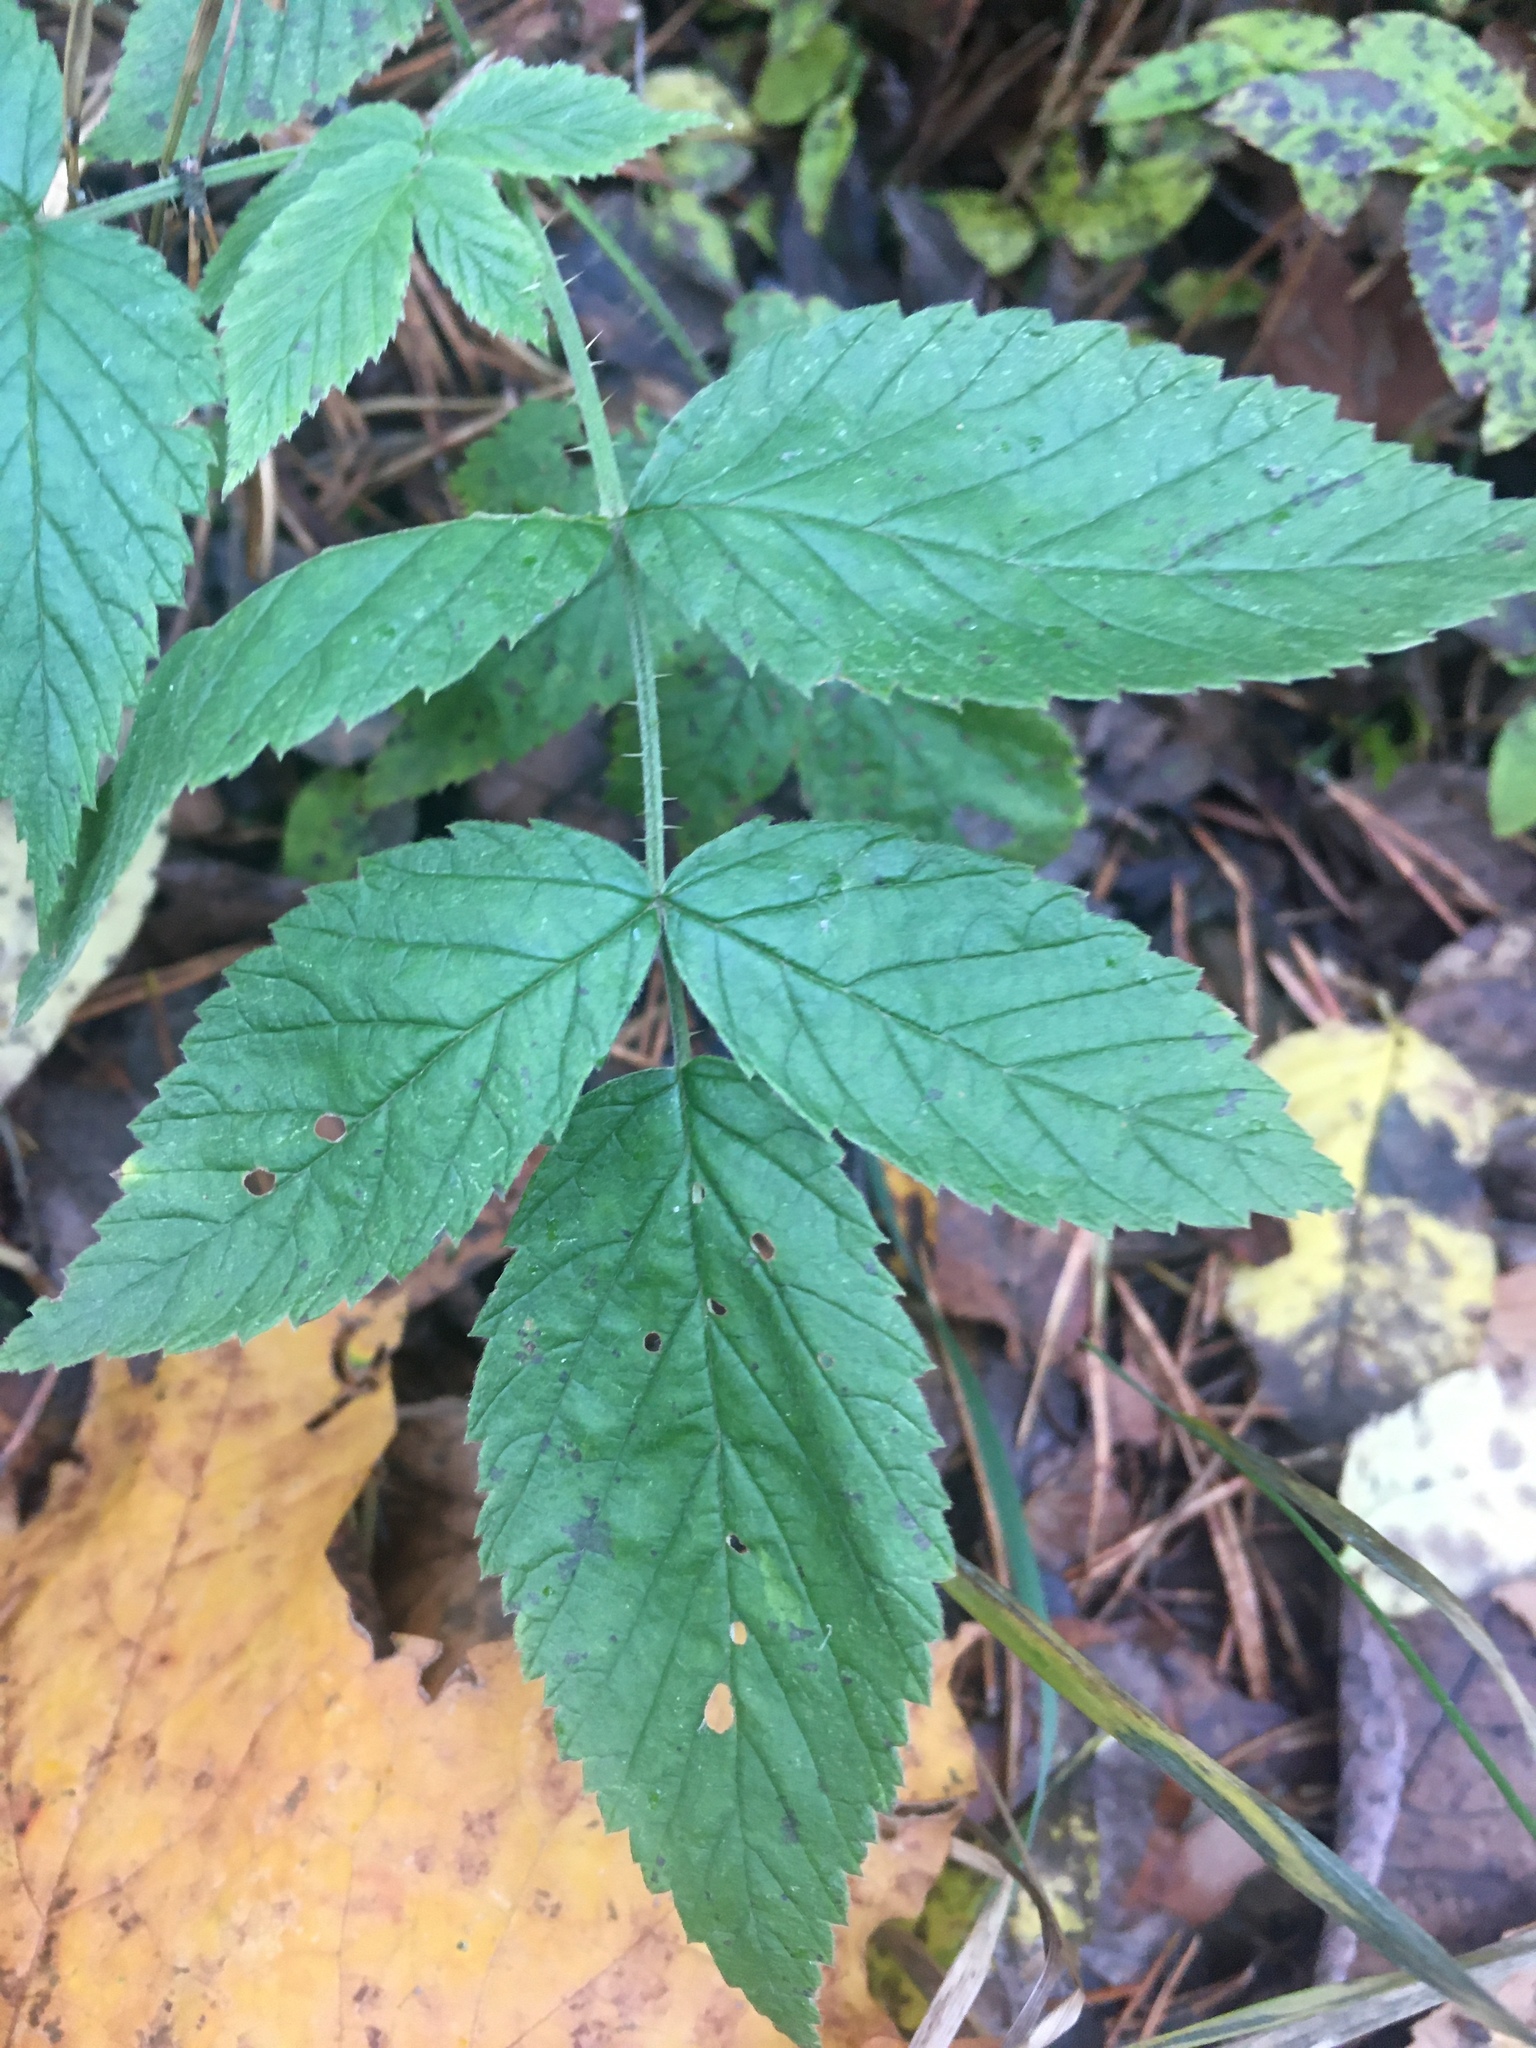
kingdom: Plantae
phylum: Tracheophyta
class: Magnoliopsida
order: Rosales
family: Rosaceae
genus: Rubus
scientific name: Rubus idaeus
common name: Raspberry
